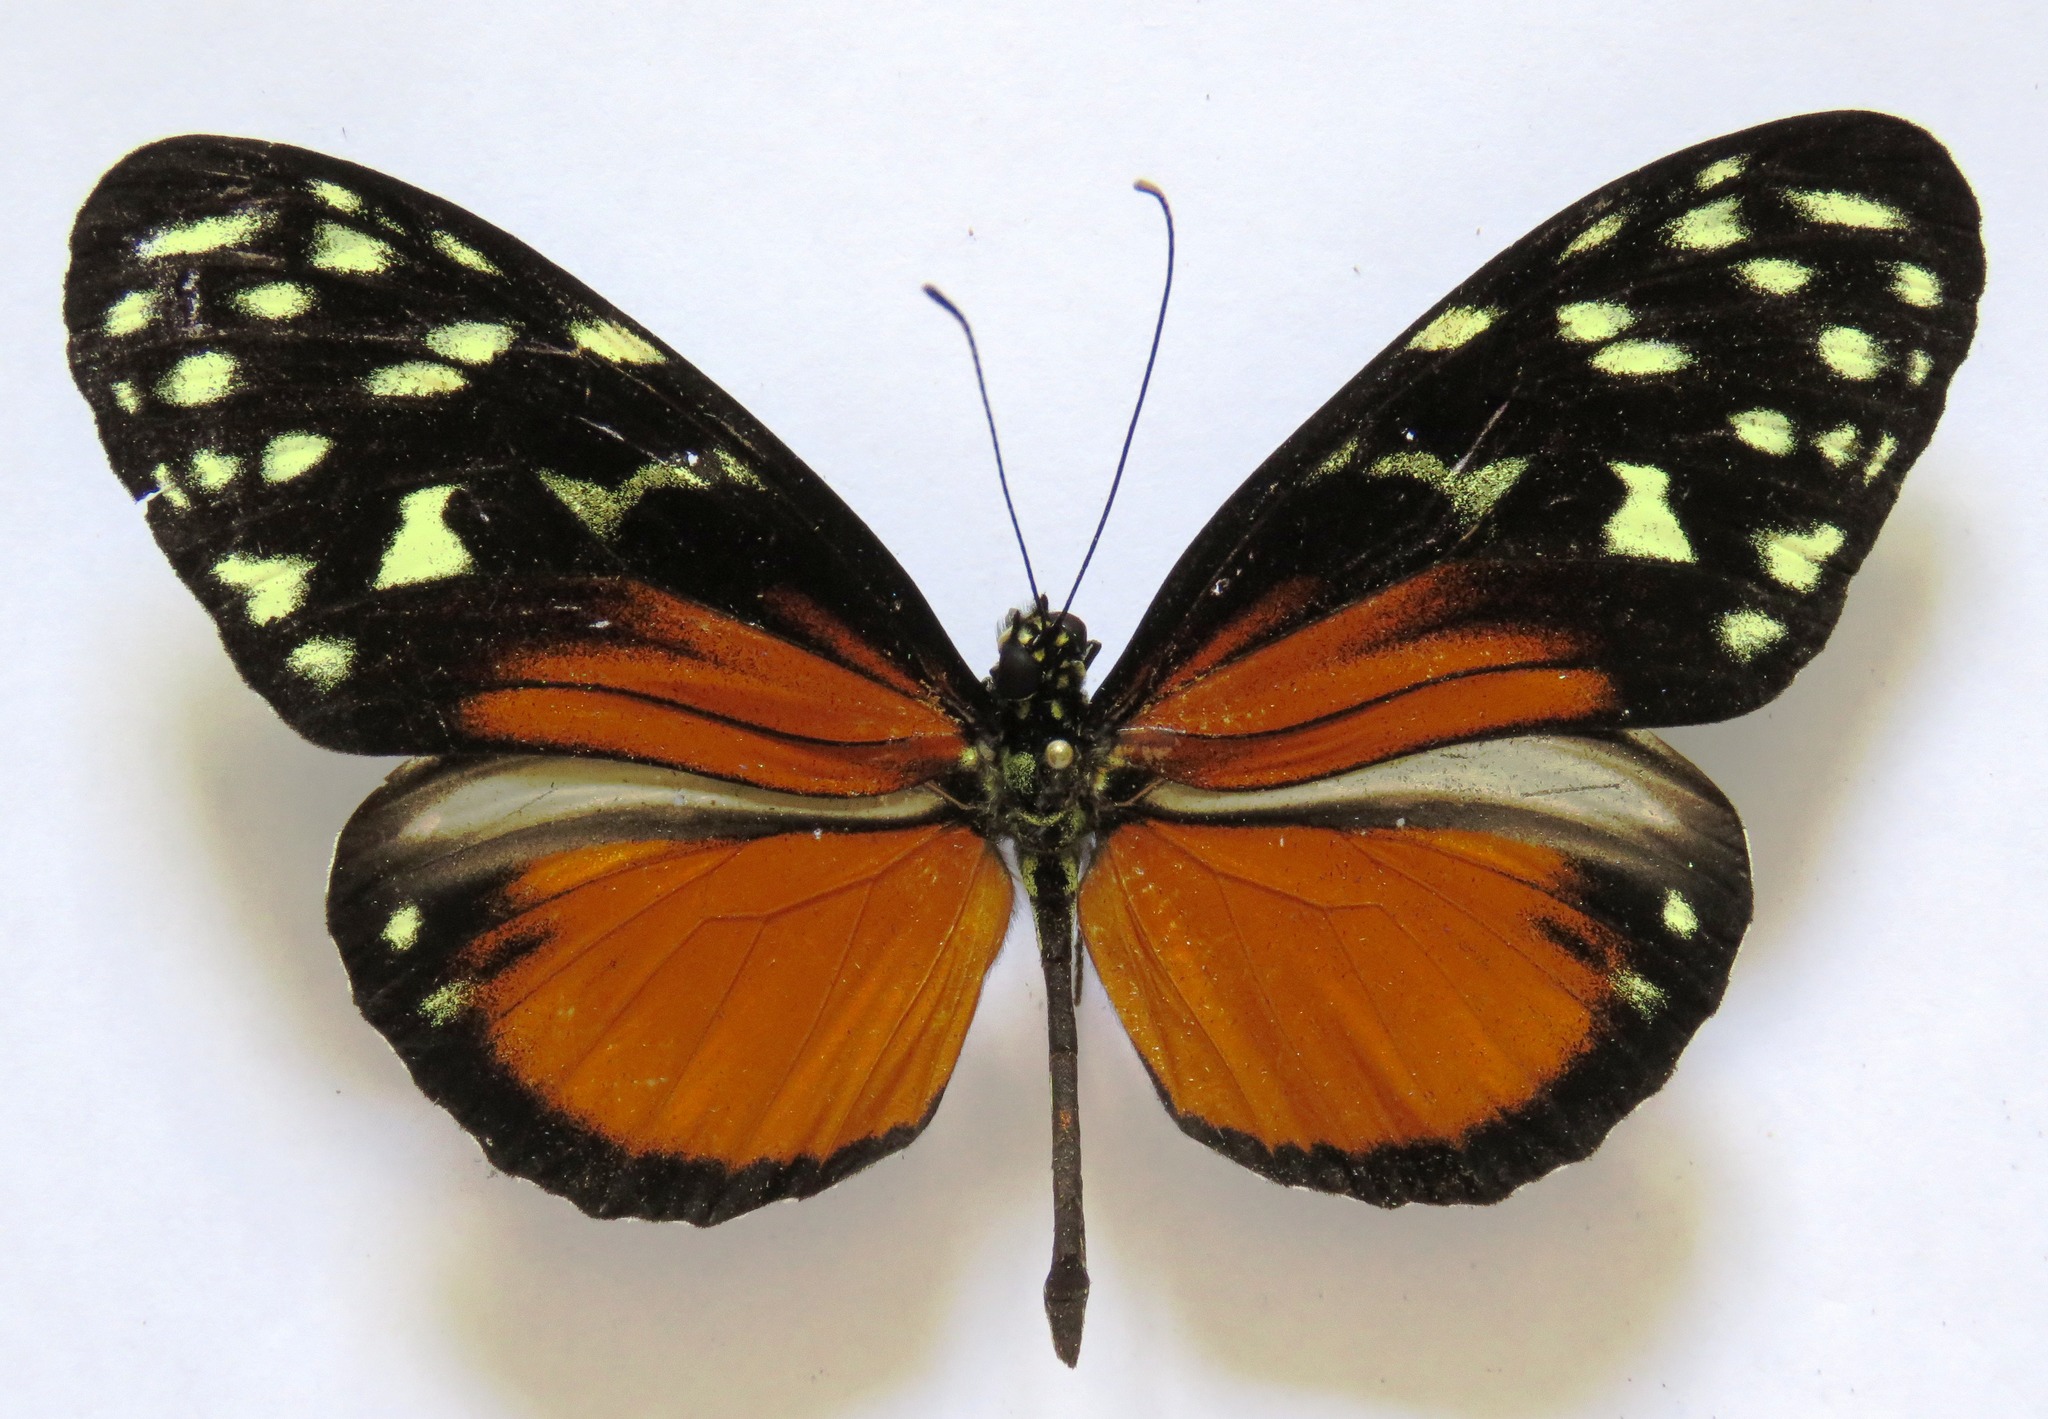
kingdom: Animalia
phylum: Arthropoda
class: Insecta
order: Lepidoptera
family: Nymphalidae
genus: Heliconius
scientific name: Heliconius hecale
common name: Tiger longwing
